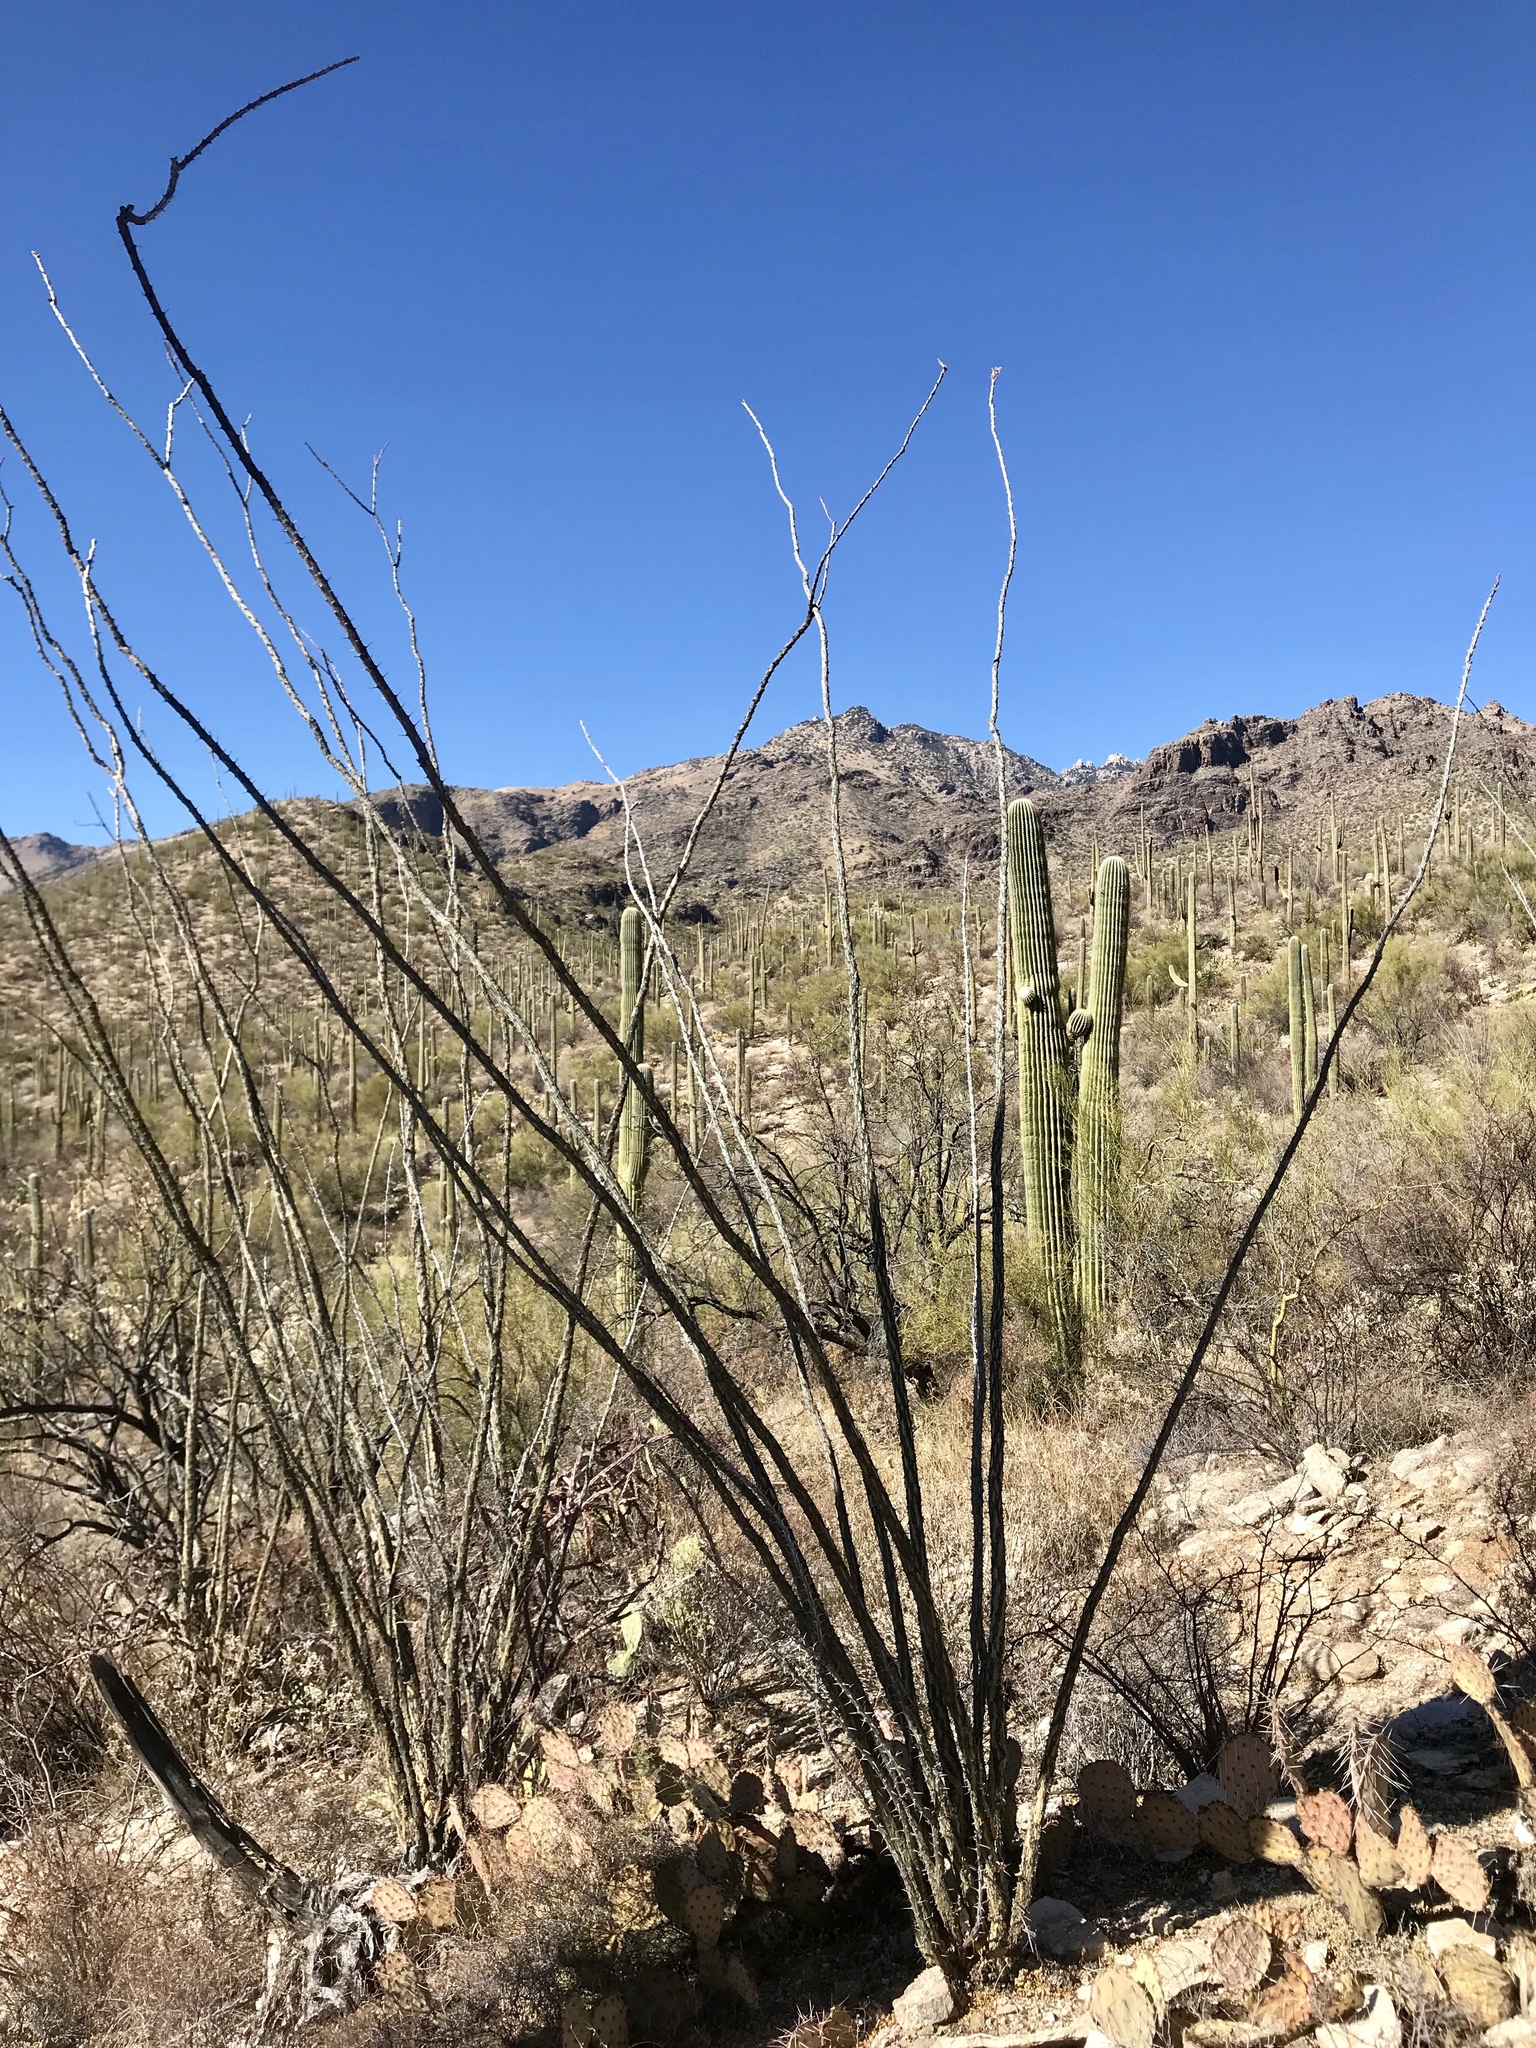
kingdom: Plantae
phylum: Tracheophyta
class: Magnoliopsida
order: Ericales
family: Fouquieriaceae
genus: Fouquieria
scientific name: Fouquieria splendens
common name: Vine-cactus
